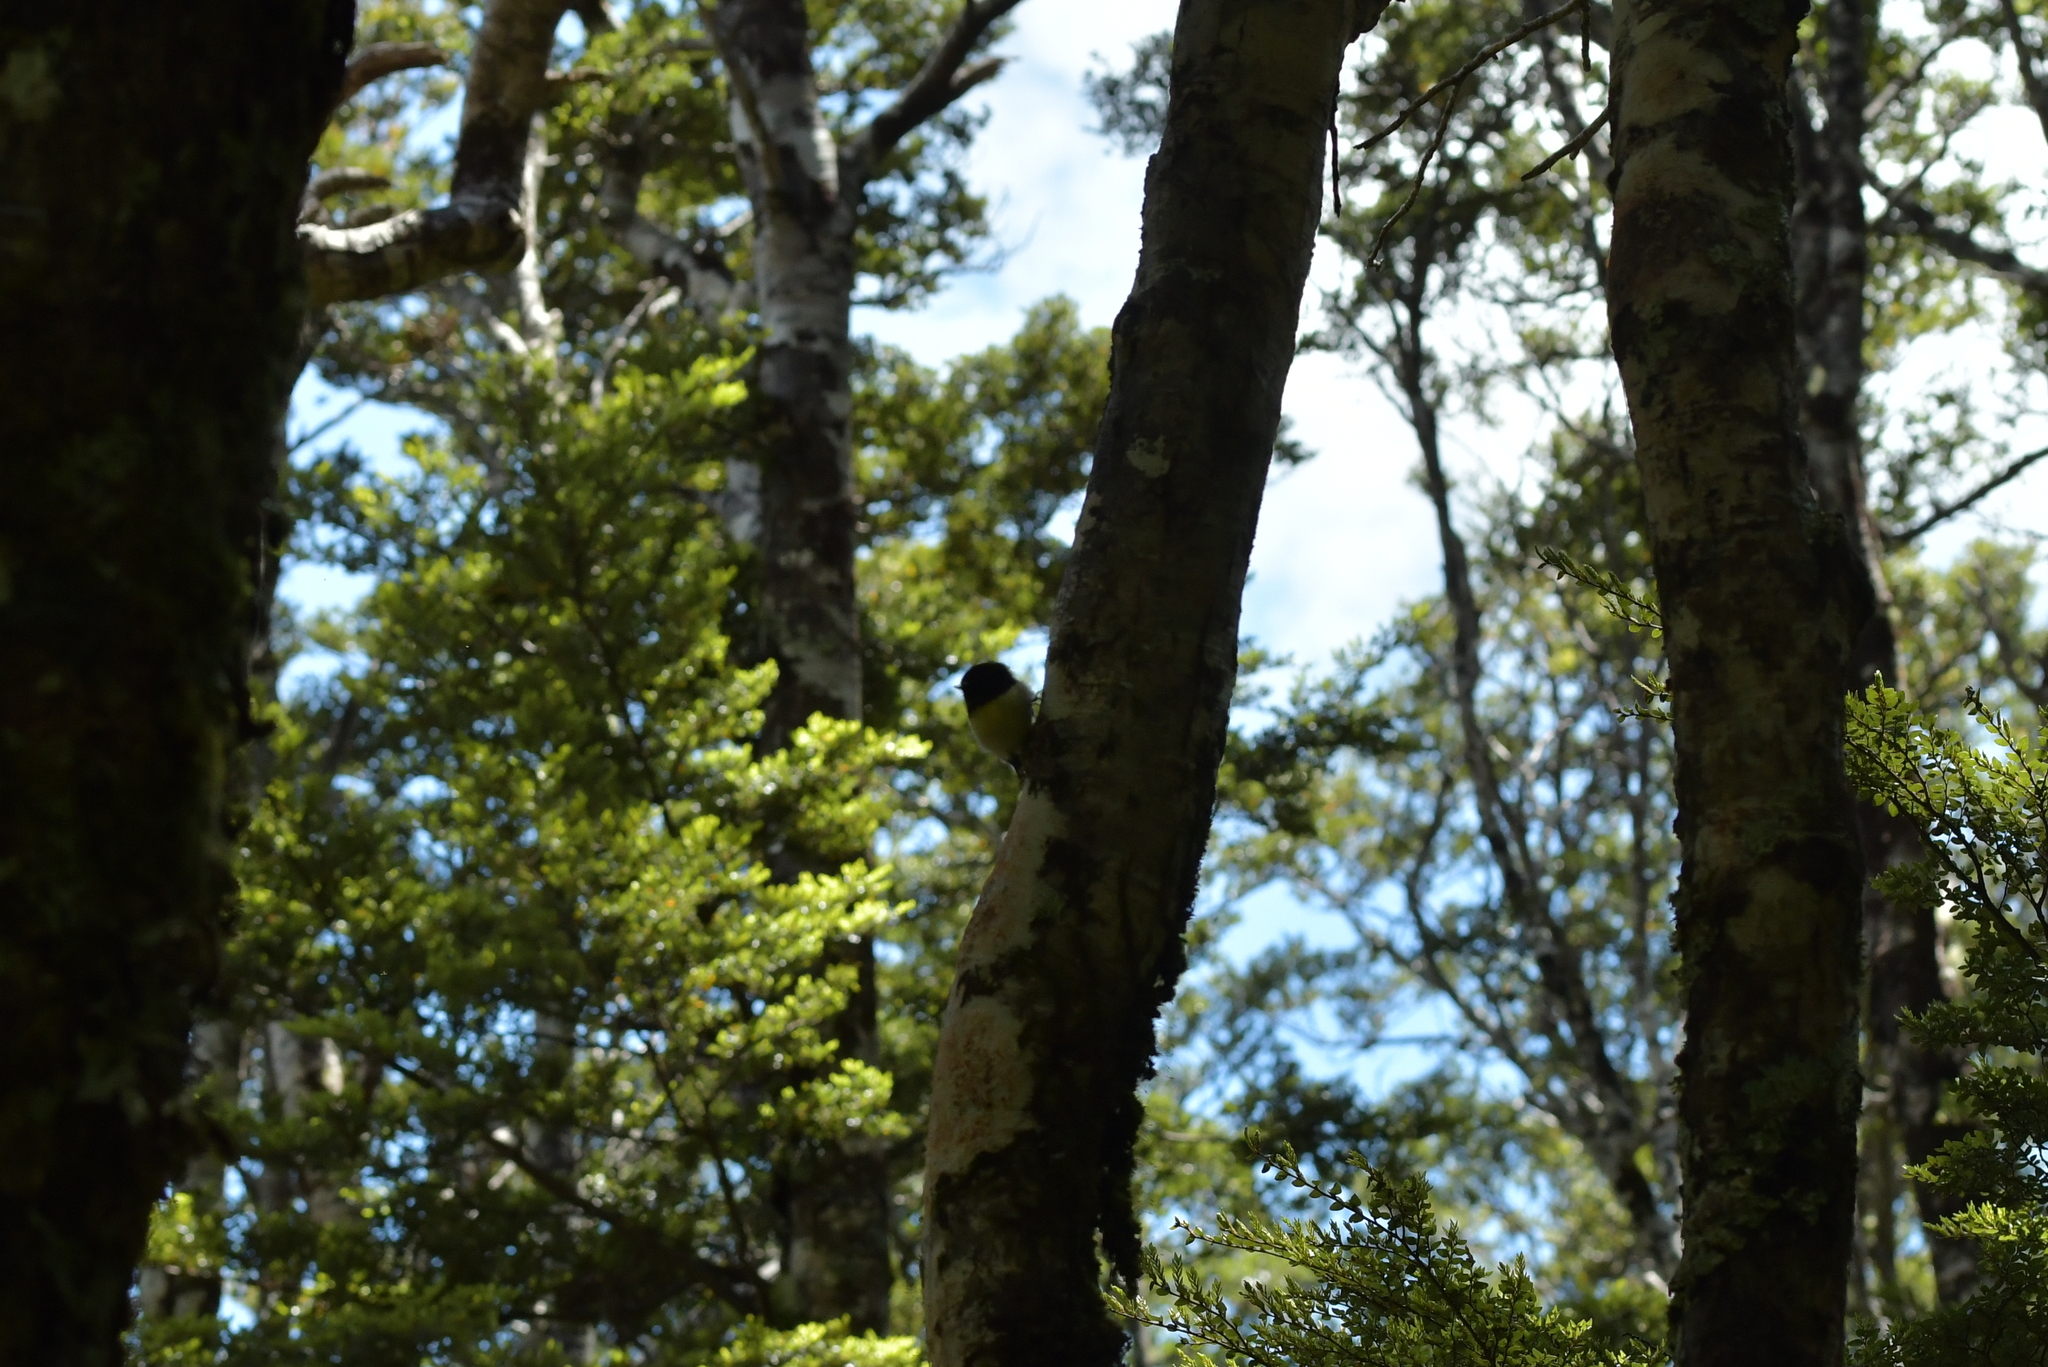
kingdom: Animalia
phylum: Chordata
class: Aves
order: Passeriformes
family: Petroicidae
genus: Petroica
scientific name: Petroica macrocephala
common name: Tomtit
